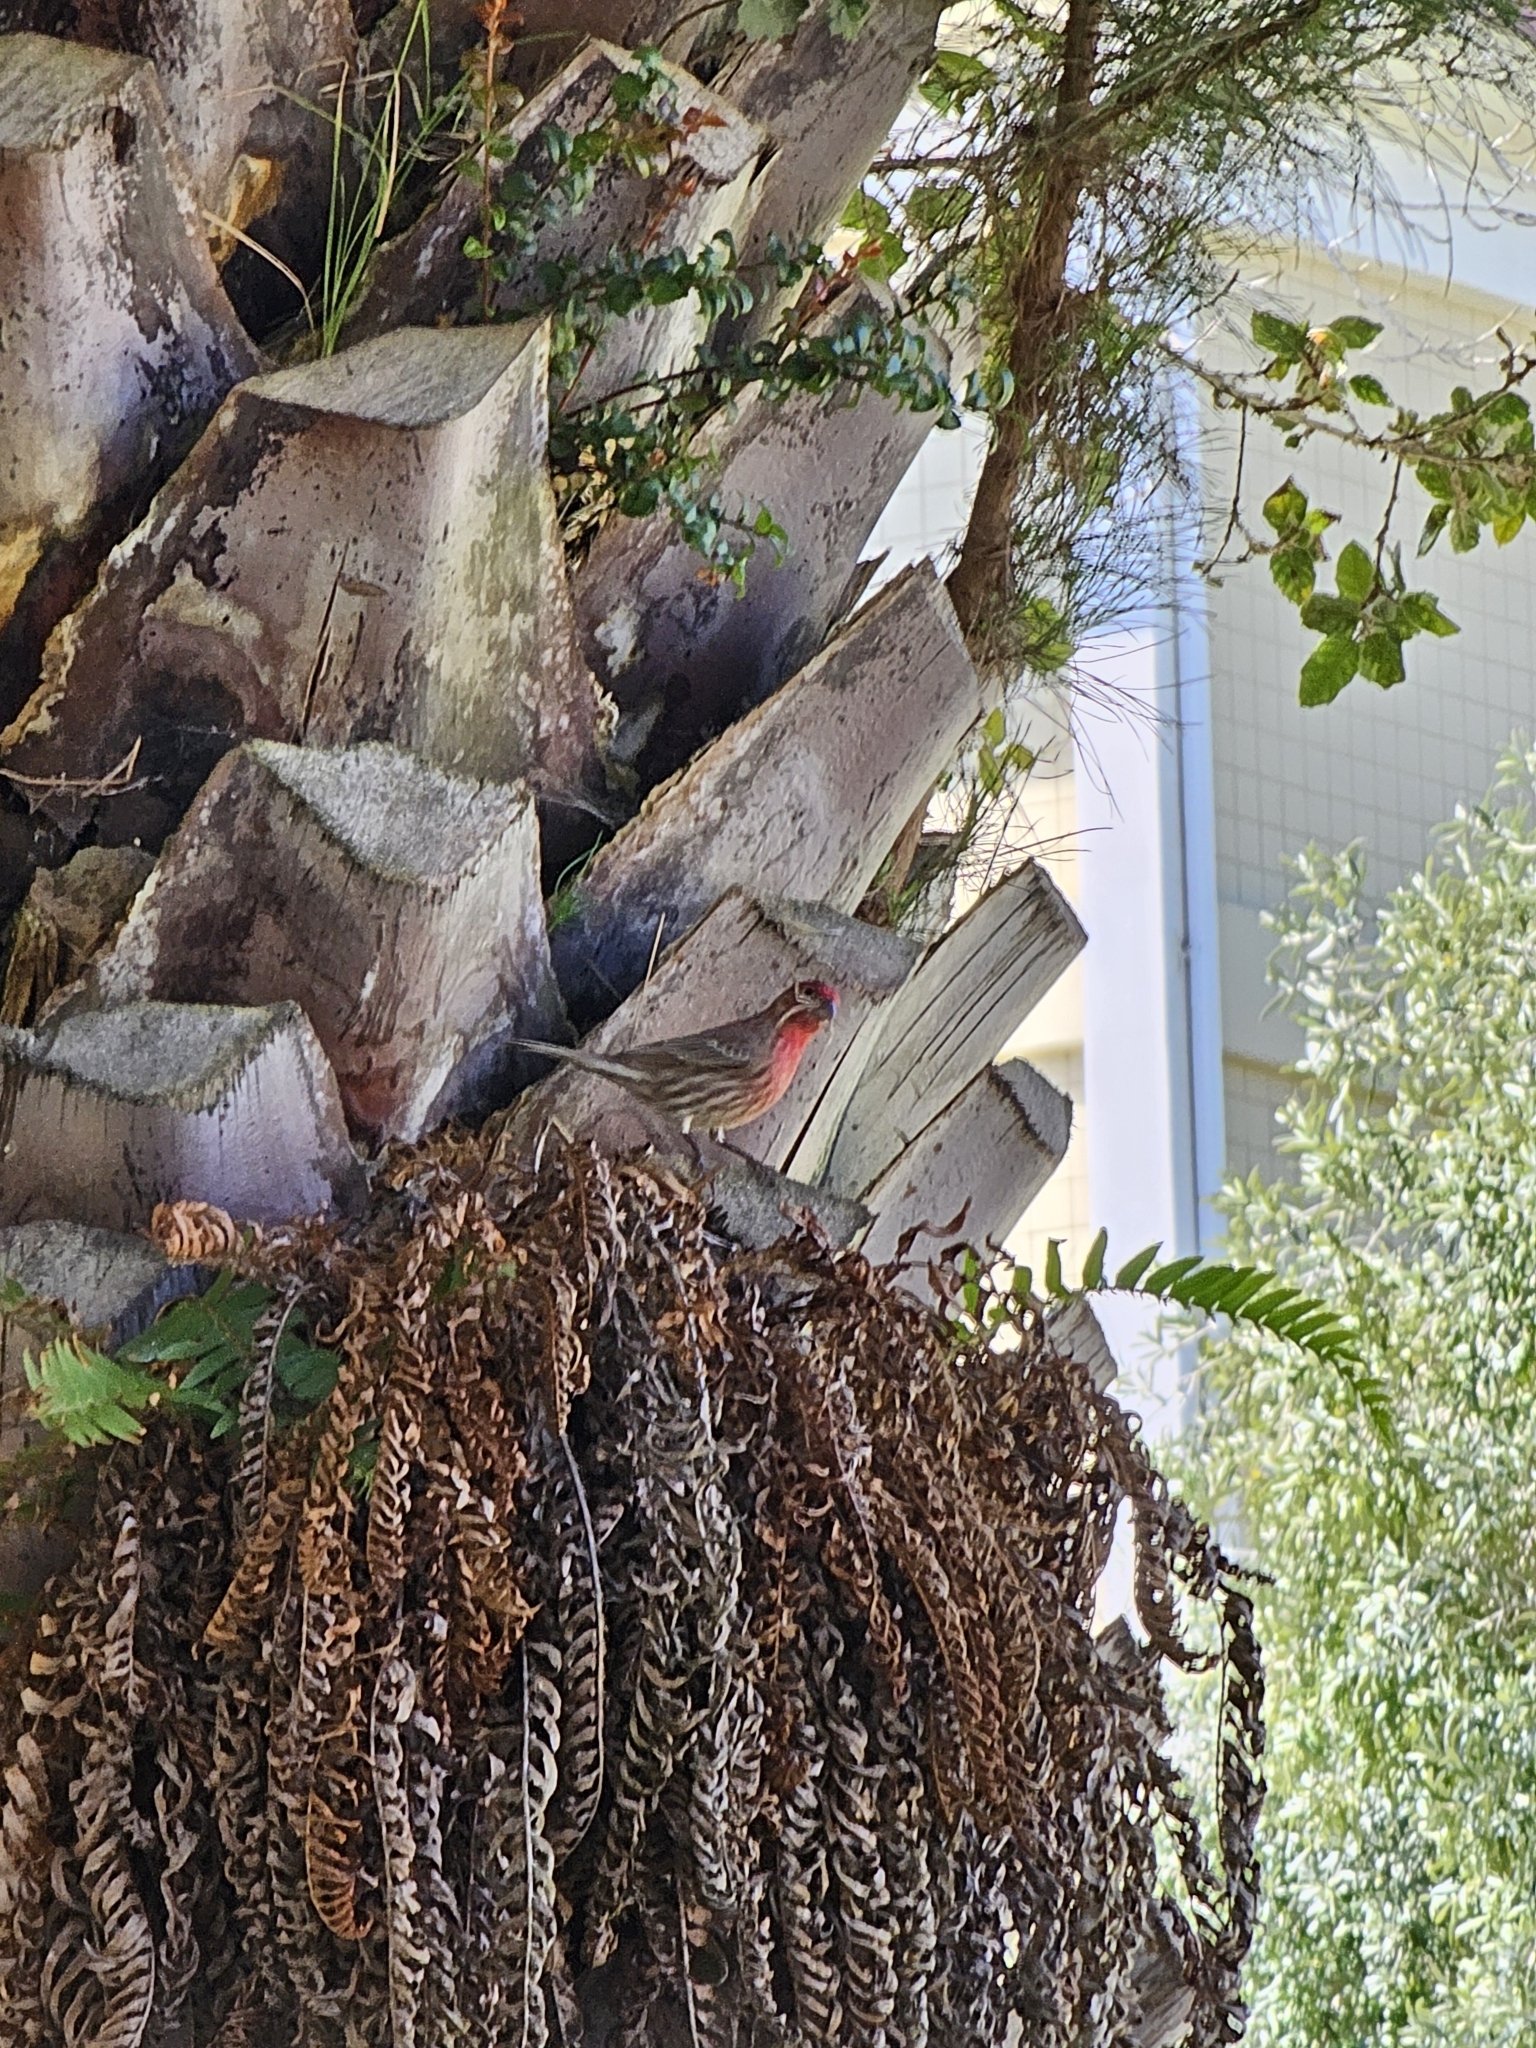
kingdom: Animalia
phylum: Chordata
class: Aves
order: Passeriformes
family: Fringillidae
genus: Haemorhous
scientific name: Haemorhous mexicanus
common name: House finch
